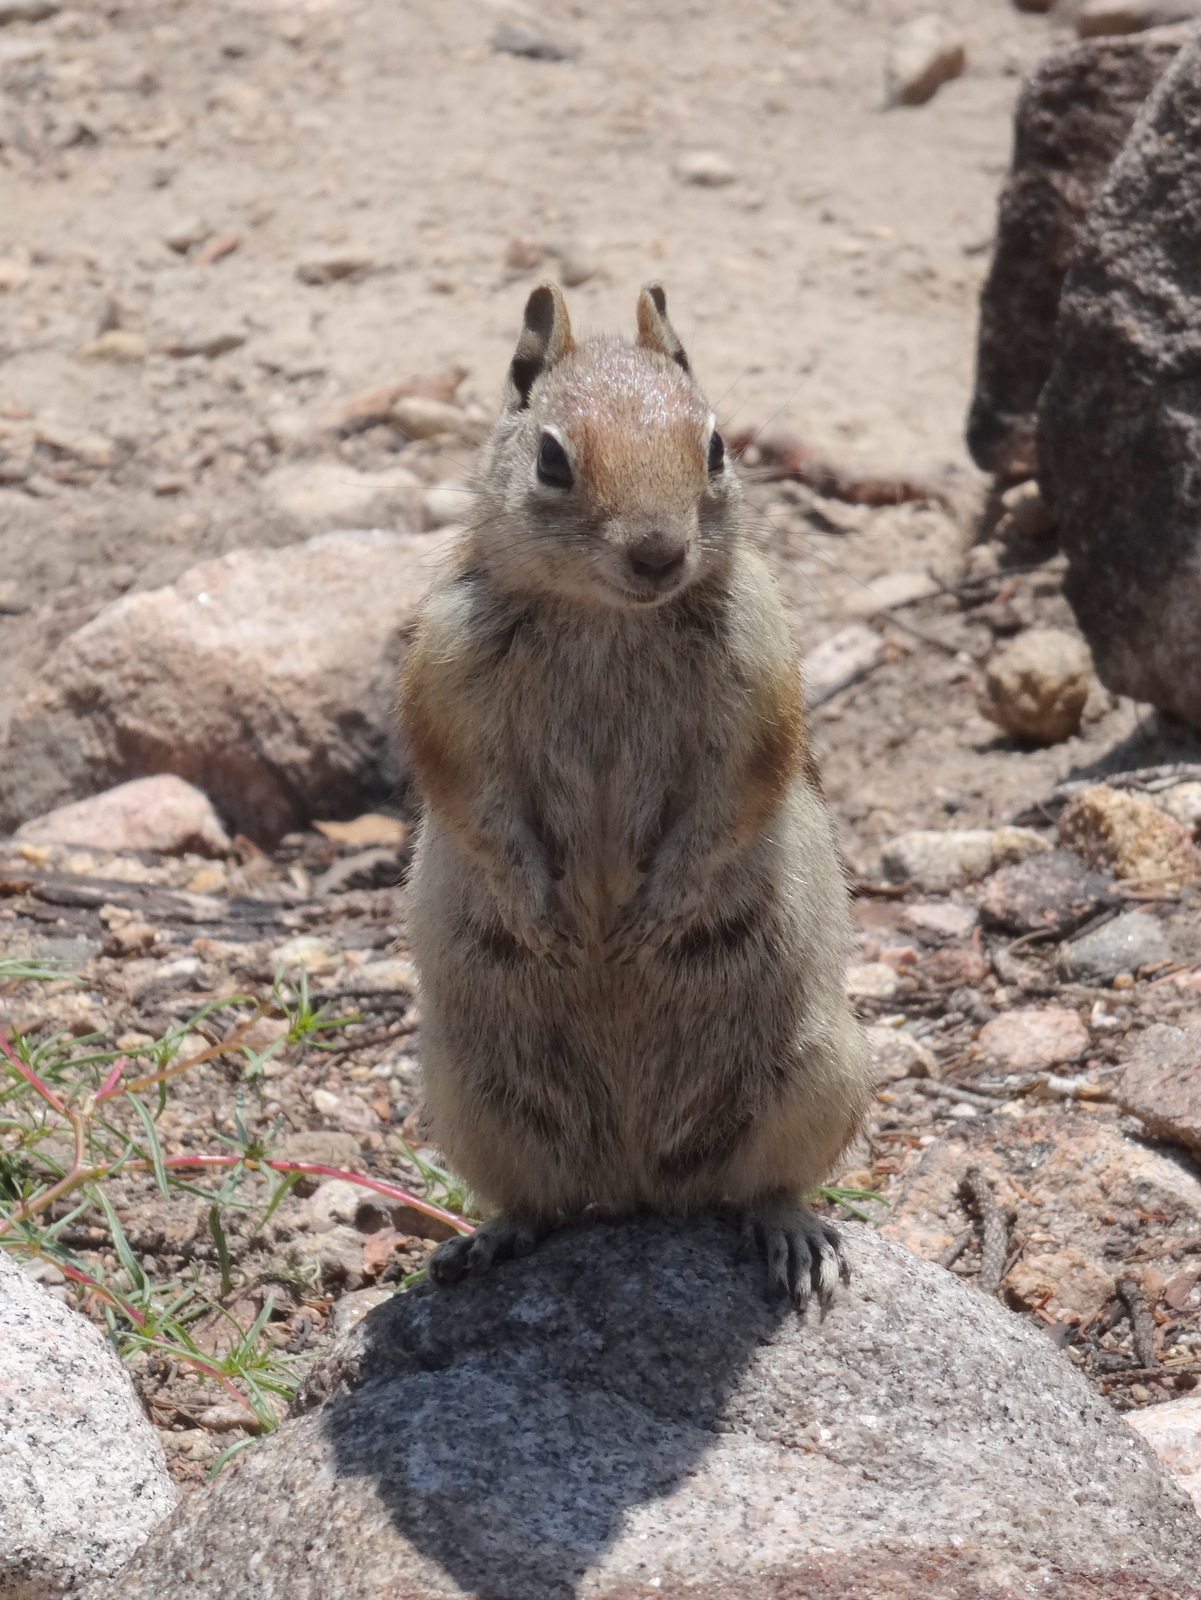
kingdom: Animalia
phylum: Chordata
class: Mammalia
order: Rodentia
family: Sciuridae
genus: Callospermophilus
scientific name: Callospermophilus lateralis
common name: Golden-mantled ground squirrel
